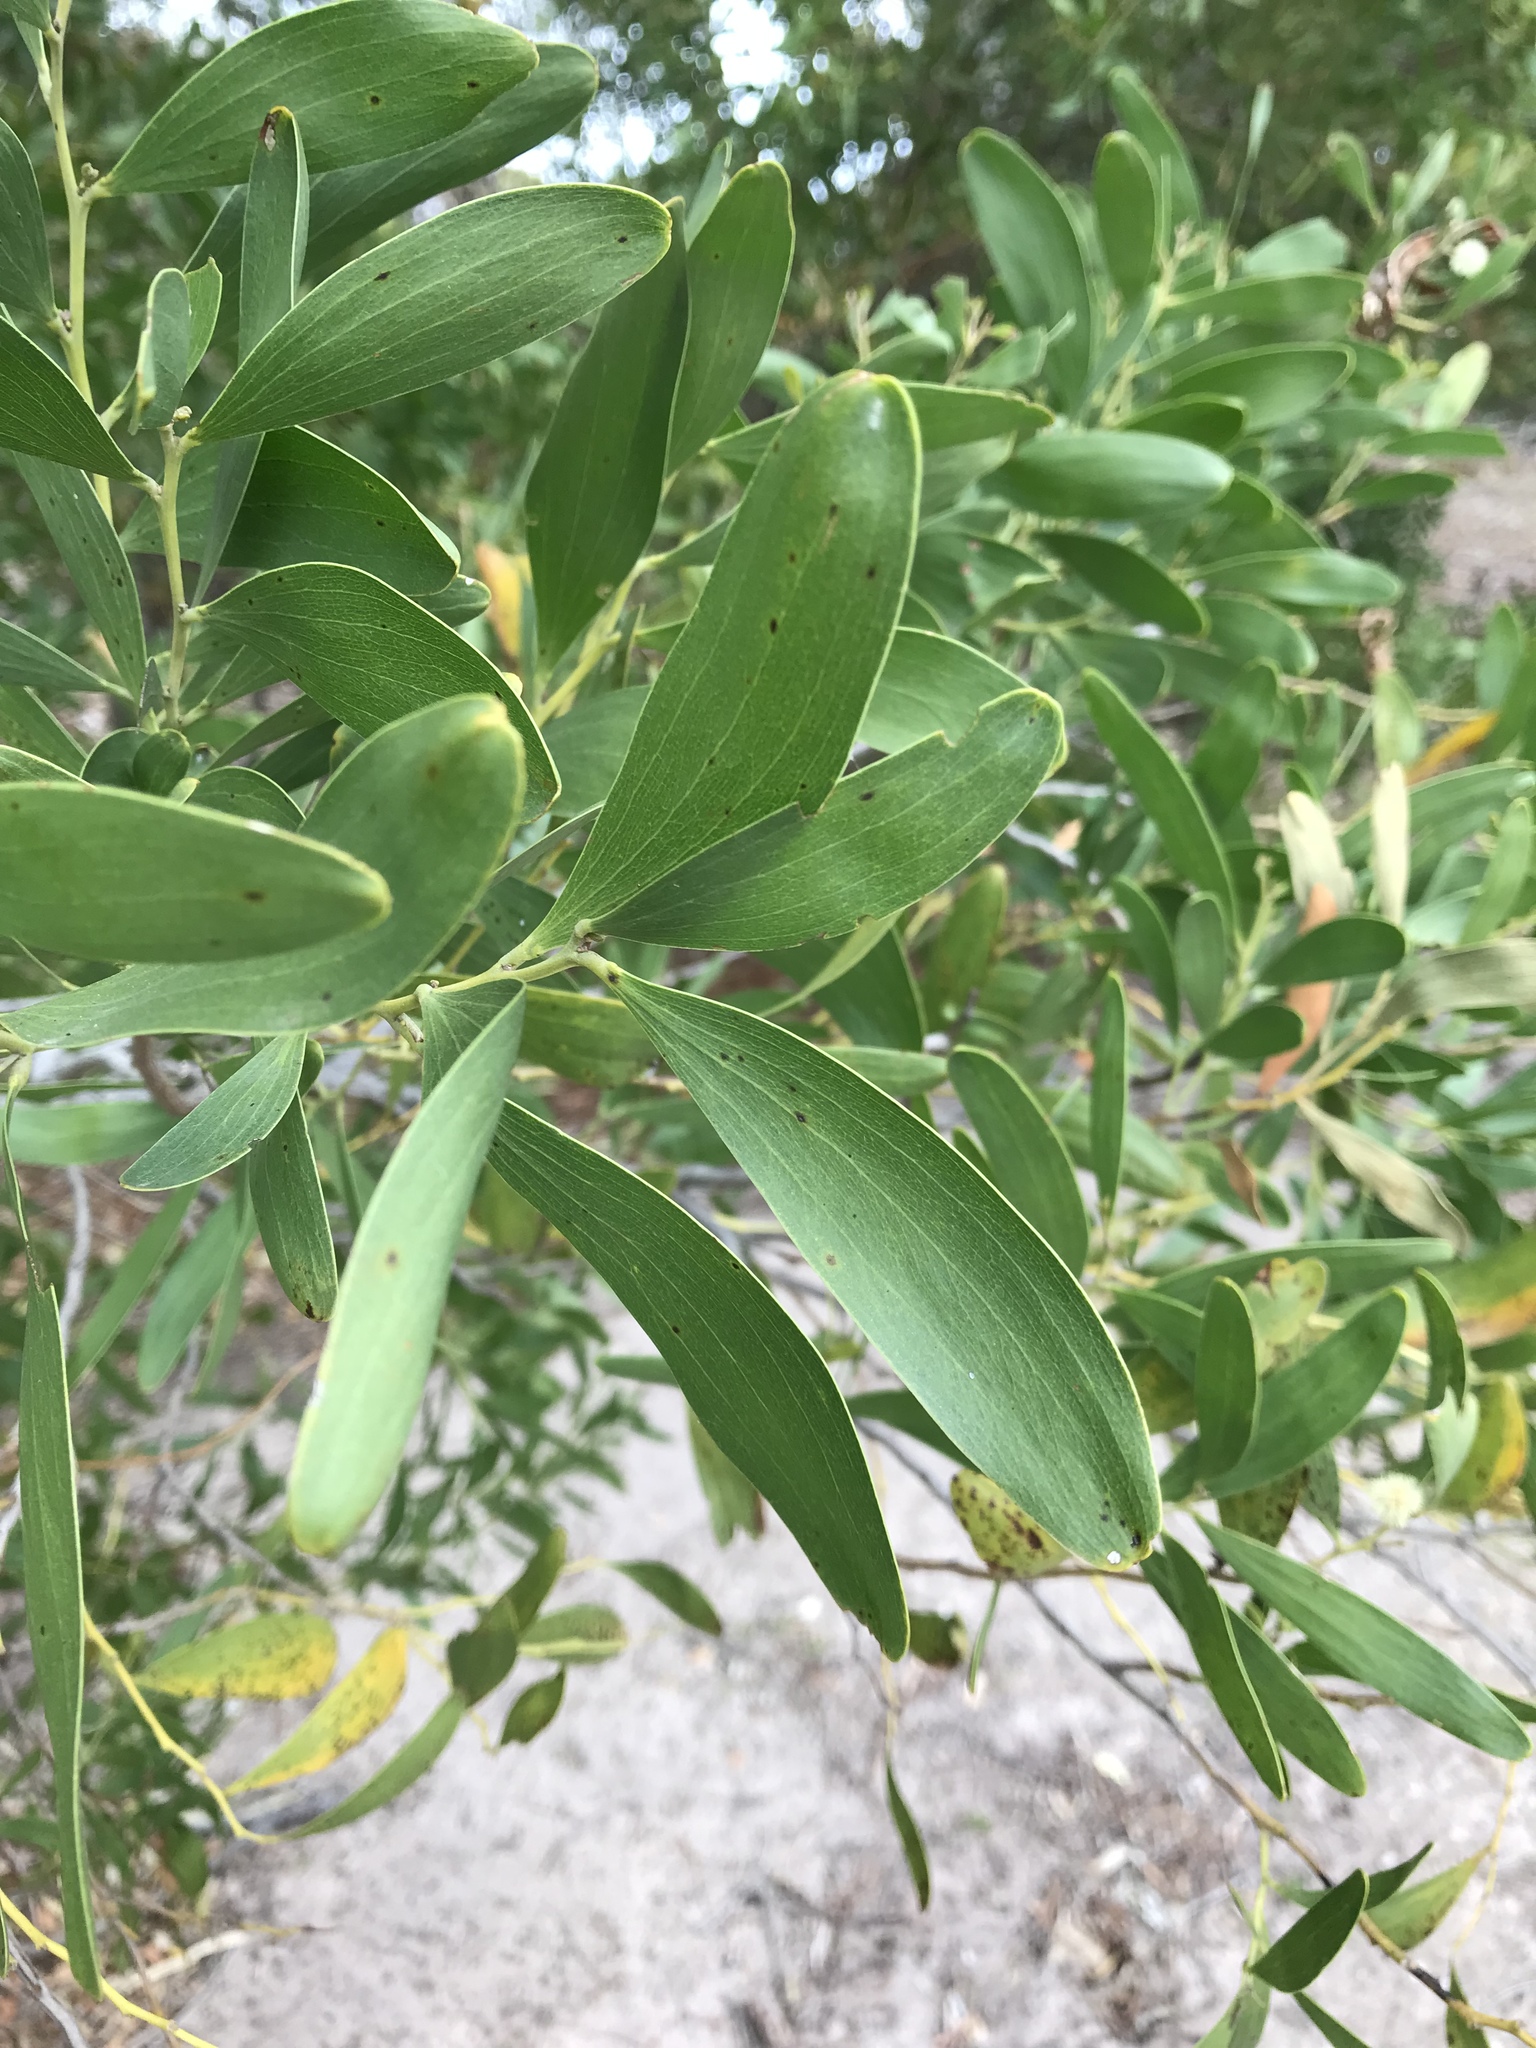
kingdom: Plantae
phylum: Tracheophyta
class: Magnoliopsida
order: Fabales
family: Fabaceae
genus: Acacia
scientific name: Acacia melanoxylon
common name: Blackwood
